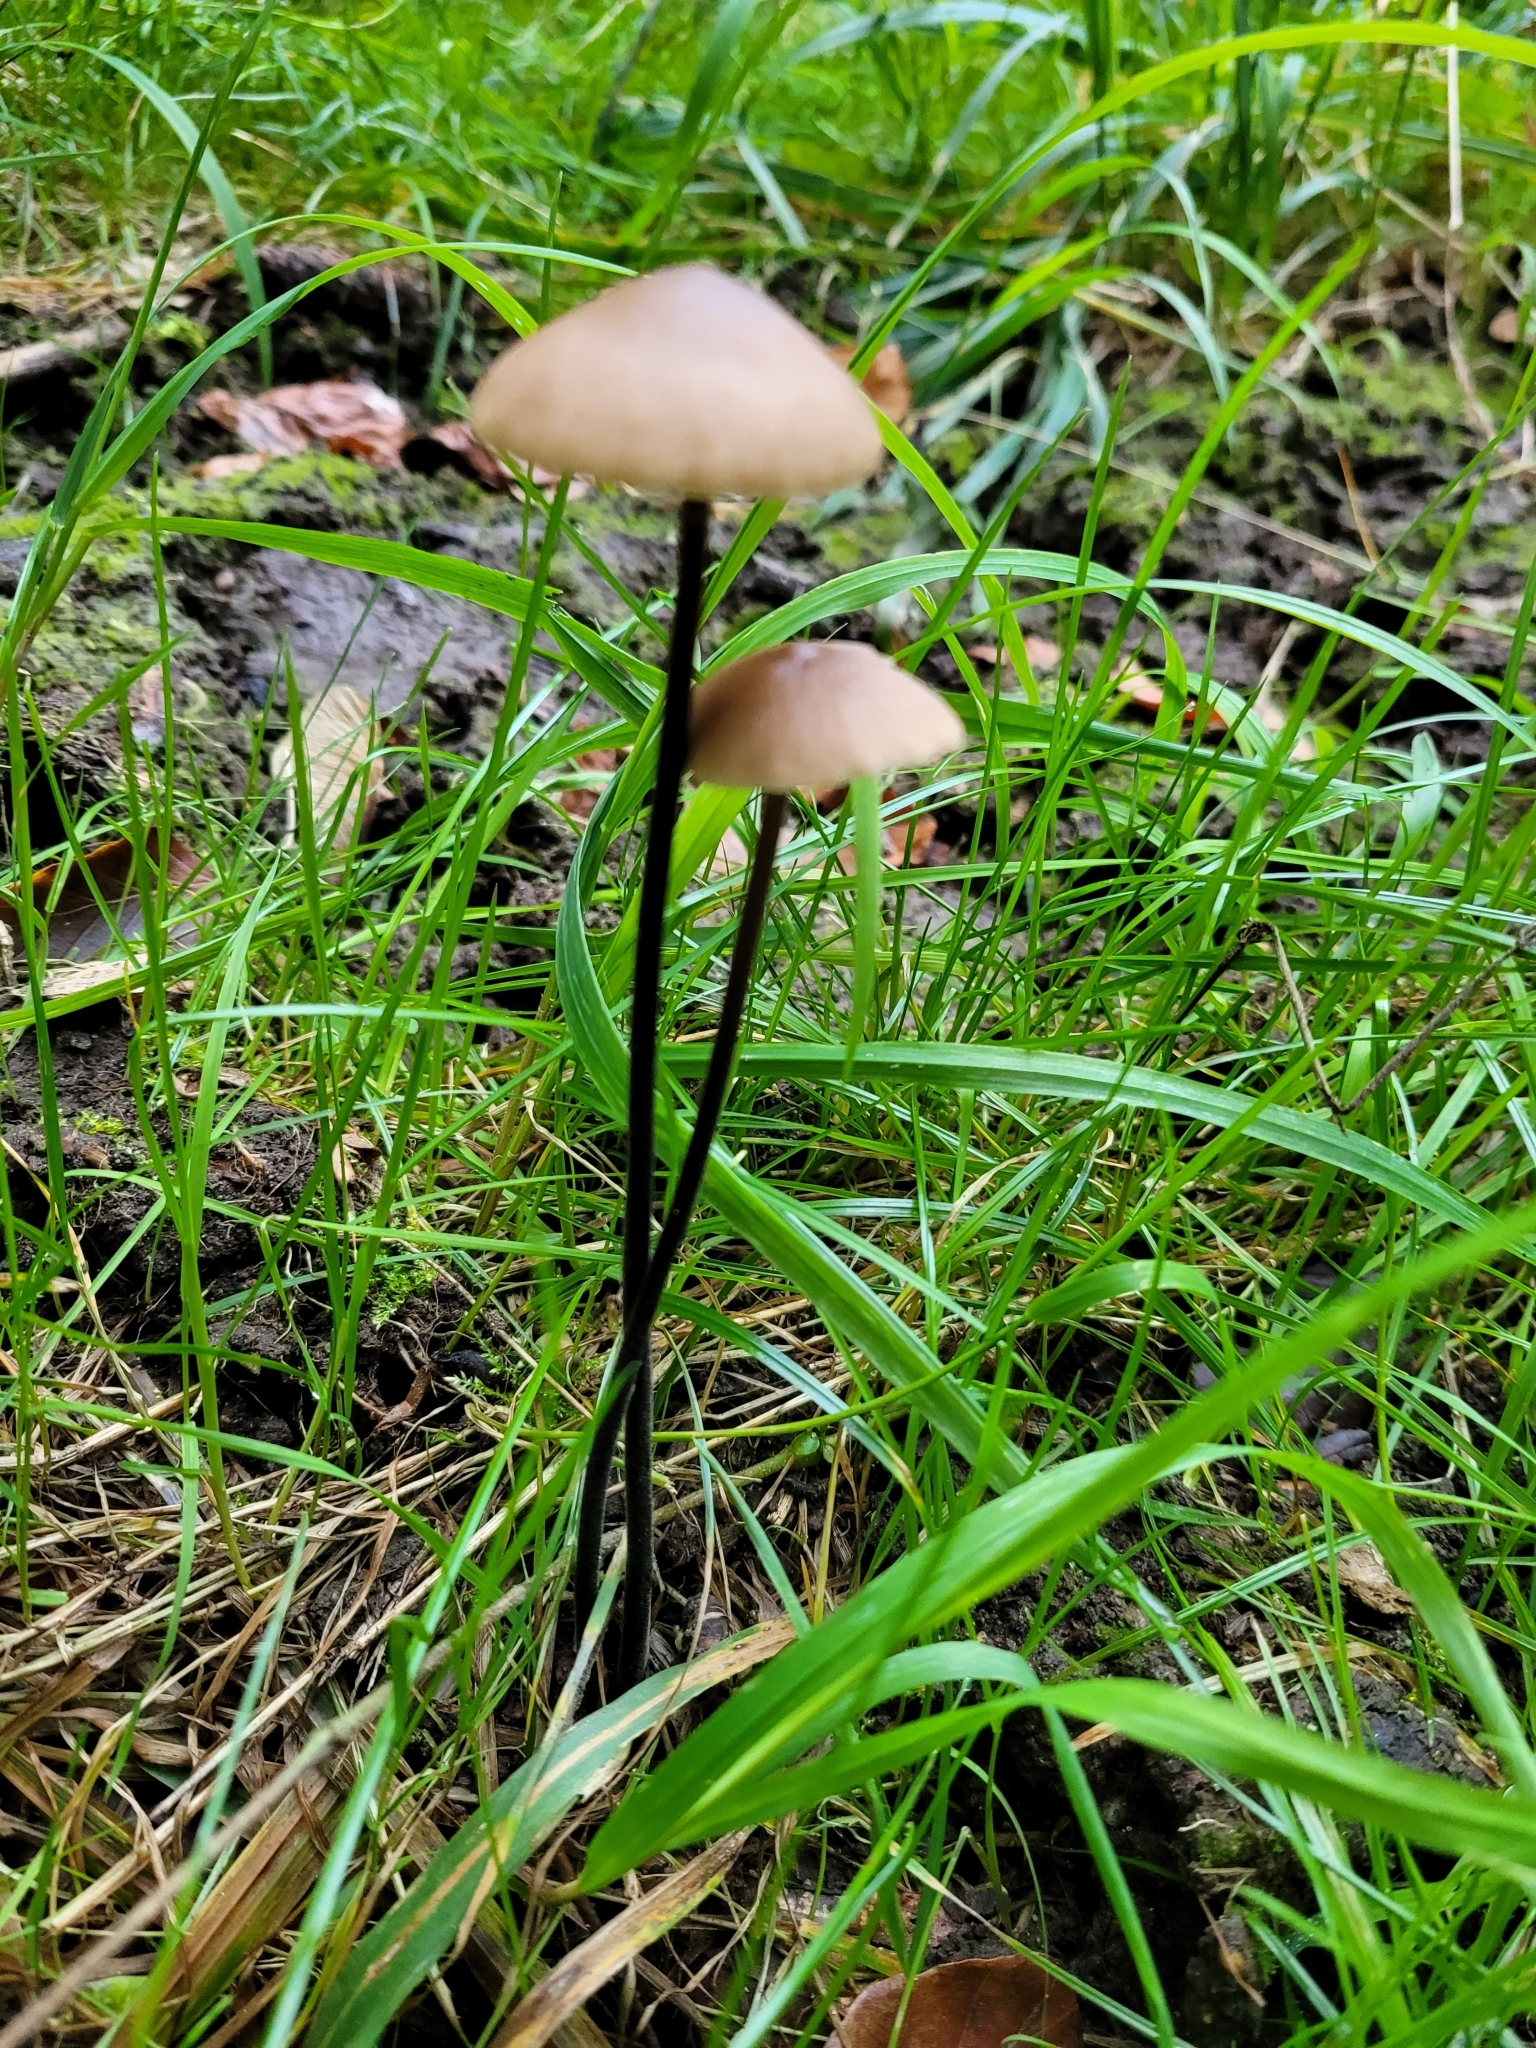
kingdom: Fungi
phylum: Basidiomycota
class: Agaricomycetes
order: Agaricales
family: Omphalotaceae
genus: Mycetinis
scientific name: Mycetinis alliaceus
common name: Garlic parachute
